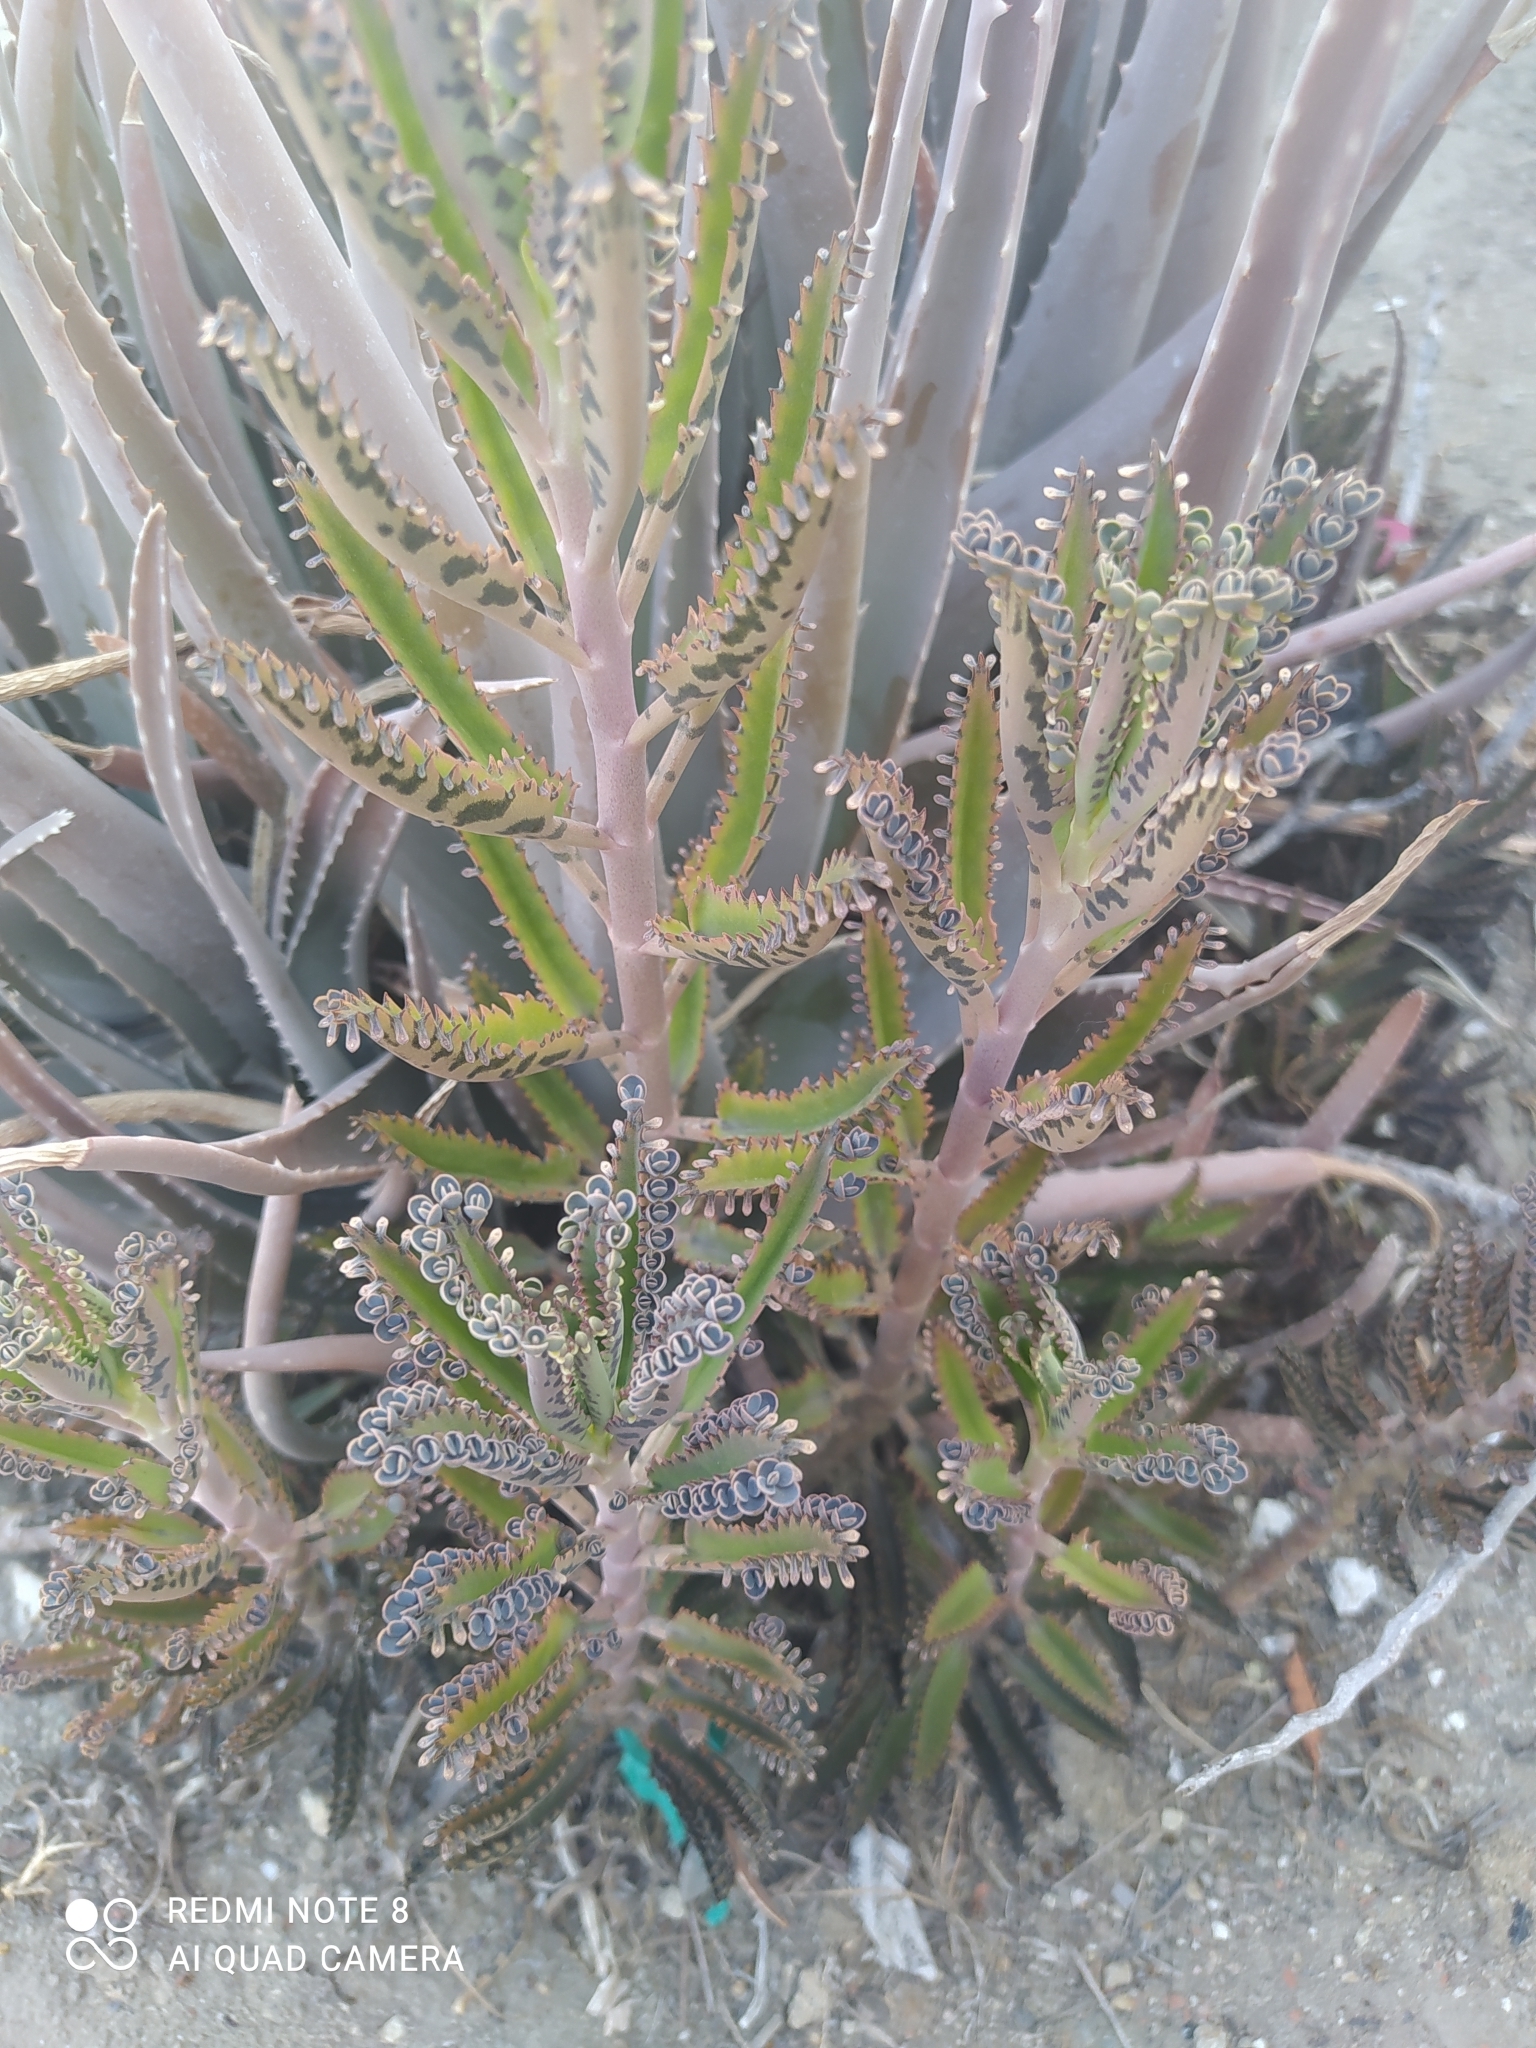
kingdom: Plantae
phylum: Tracheophyta
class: Magnoliopsida
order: Saxifragales
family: Crassulaceae
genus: Kalanchoe
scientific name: Kalanchoe houghtonii
